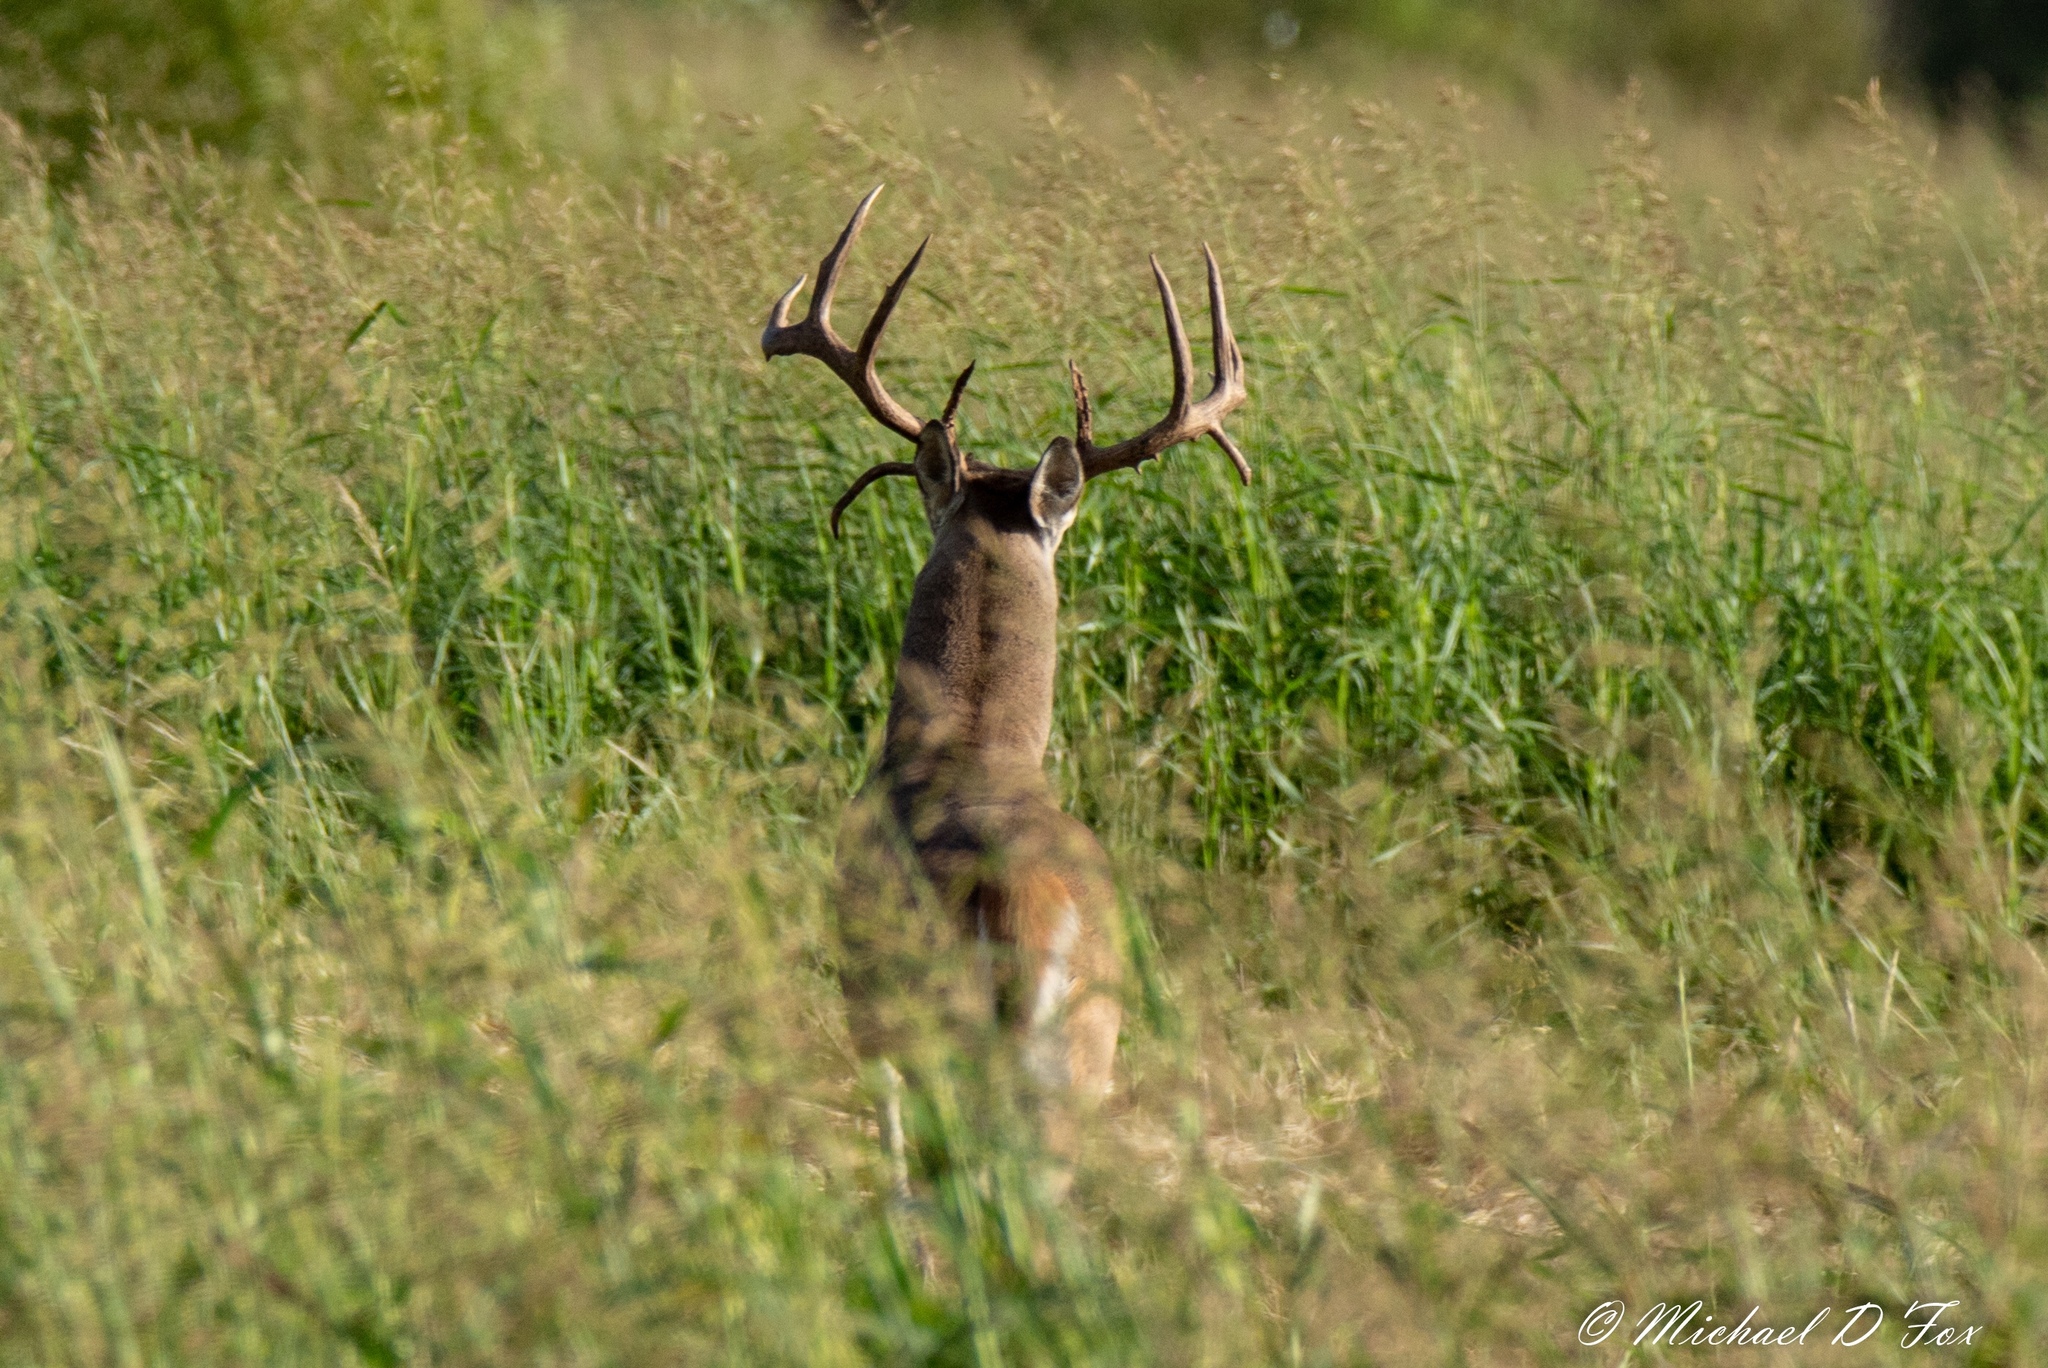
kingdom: Animalia
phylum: Chordata
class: Mammalia
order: Artiodactyla
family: Cervidae
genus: Odocoileus
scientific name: Odocoileus virginianus
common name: White-tailed deer
